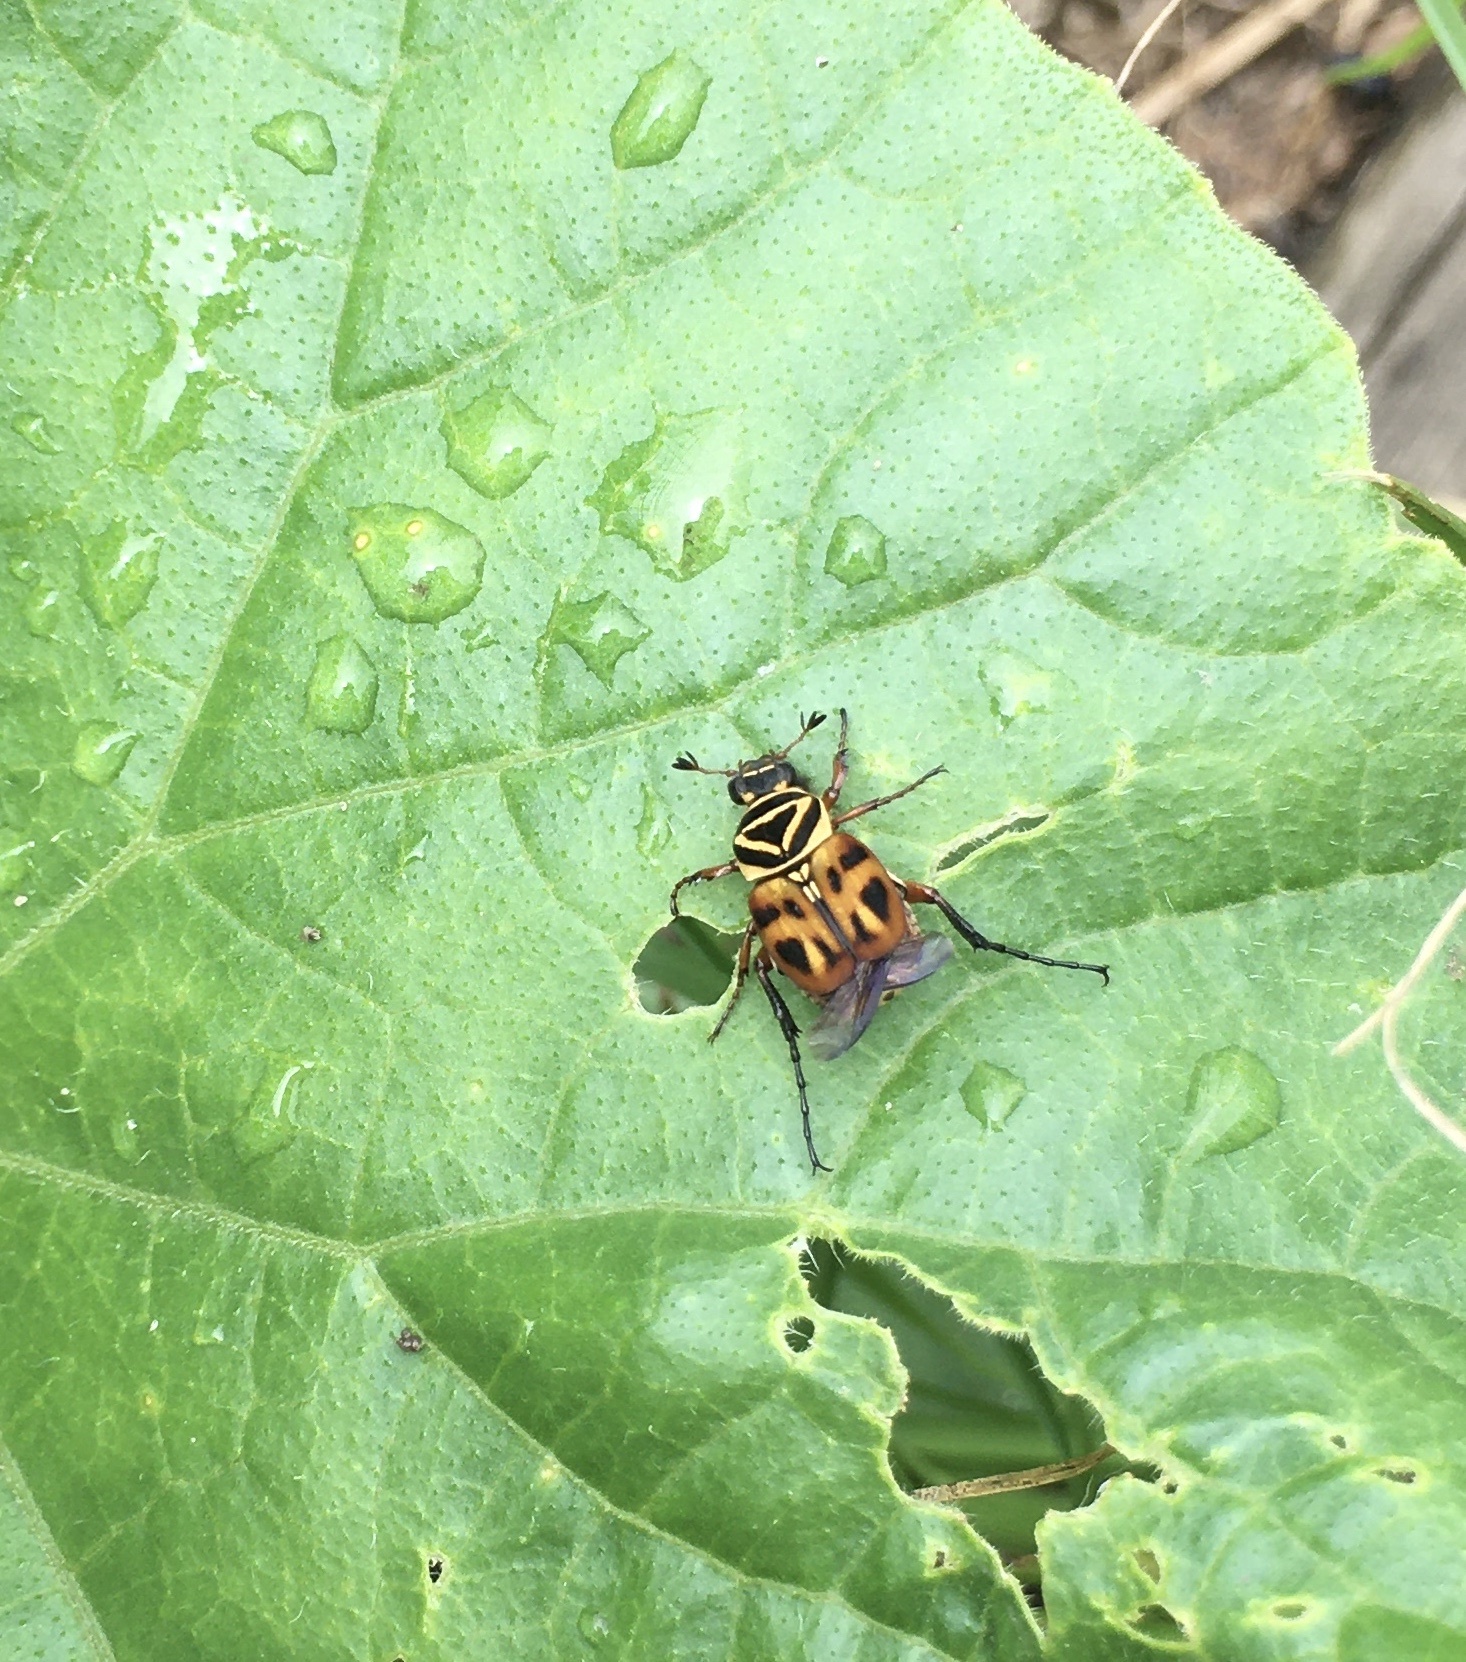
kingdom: Animalia
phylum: Arthropoda
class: Insecta
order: Coleoptera
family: Scarabaeidae
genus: Trigonopeltastes
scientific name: Trigonopeltastes delta
